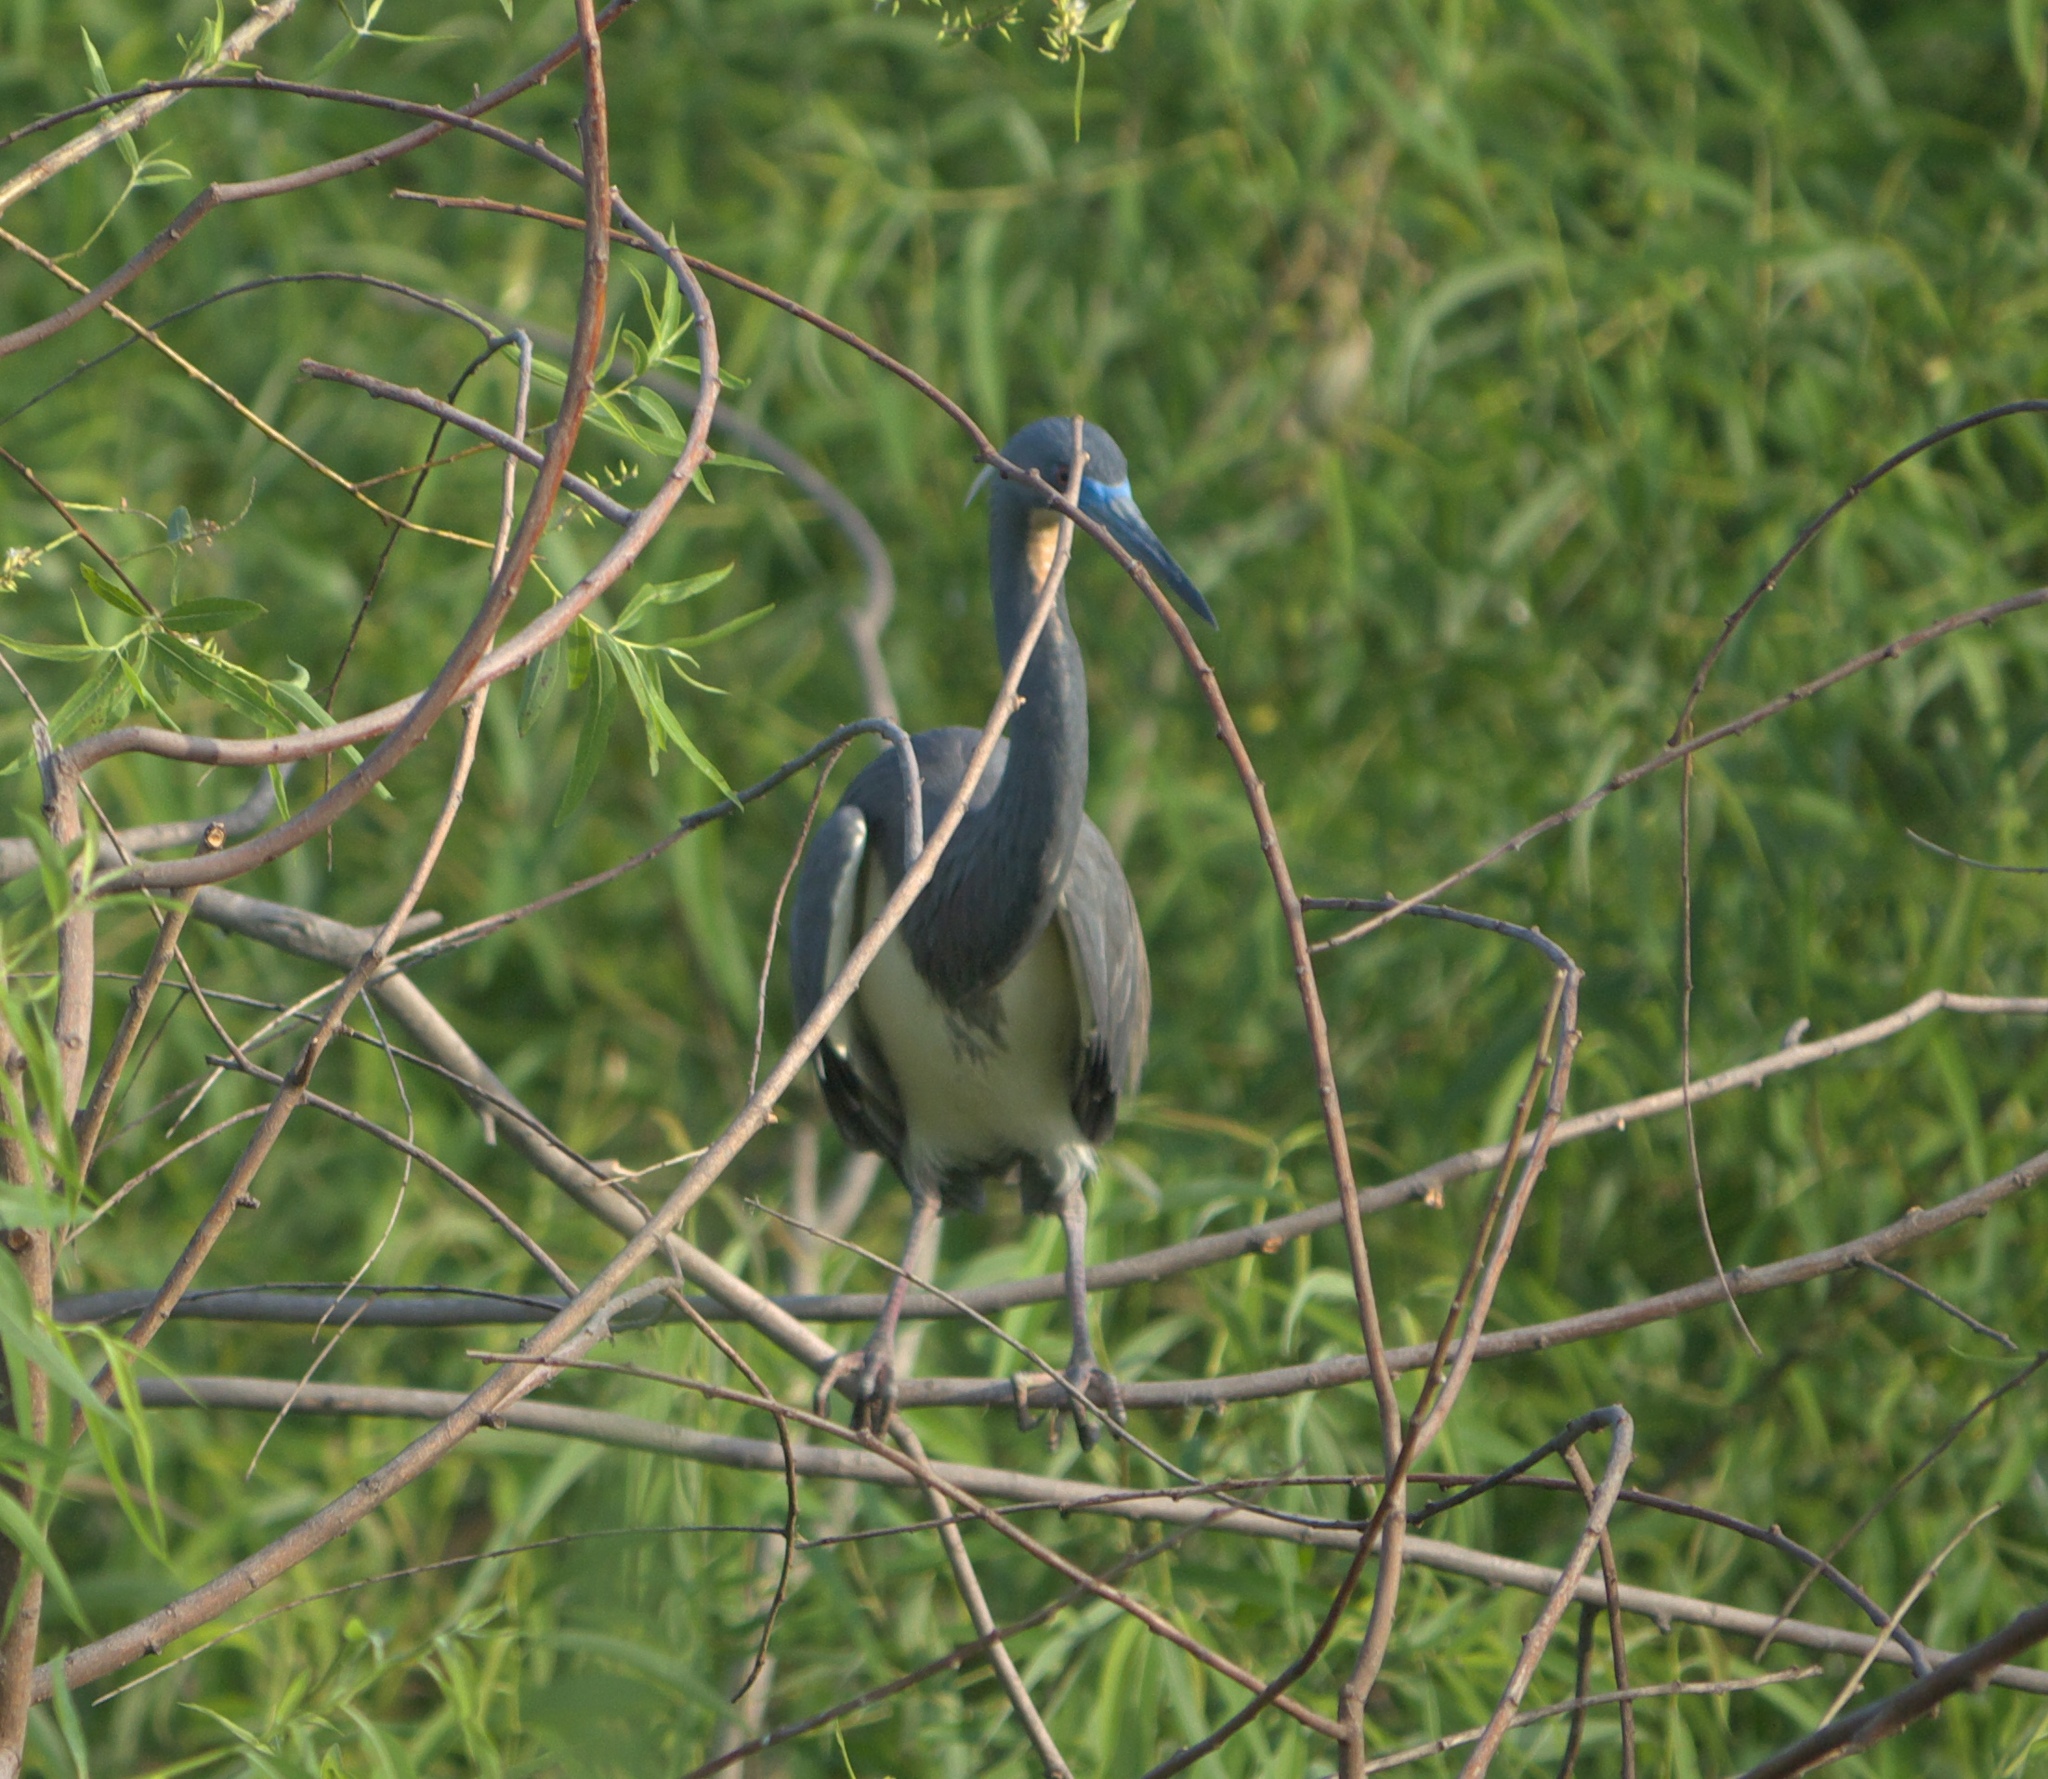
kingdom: Animalia
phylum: Chordata
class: Aves
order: Pelecaniformes
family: Ardeidae
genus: Egretta
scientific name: Egretta tricolor
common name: Tricolored heron
